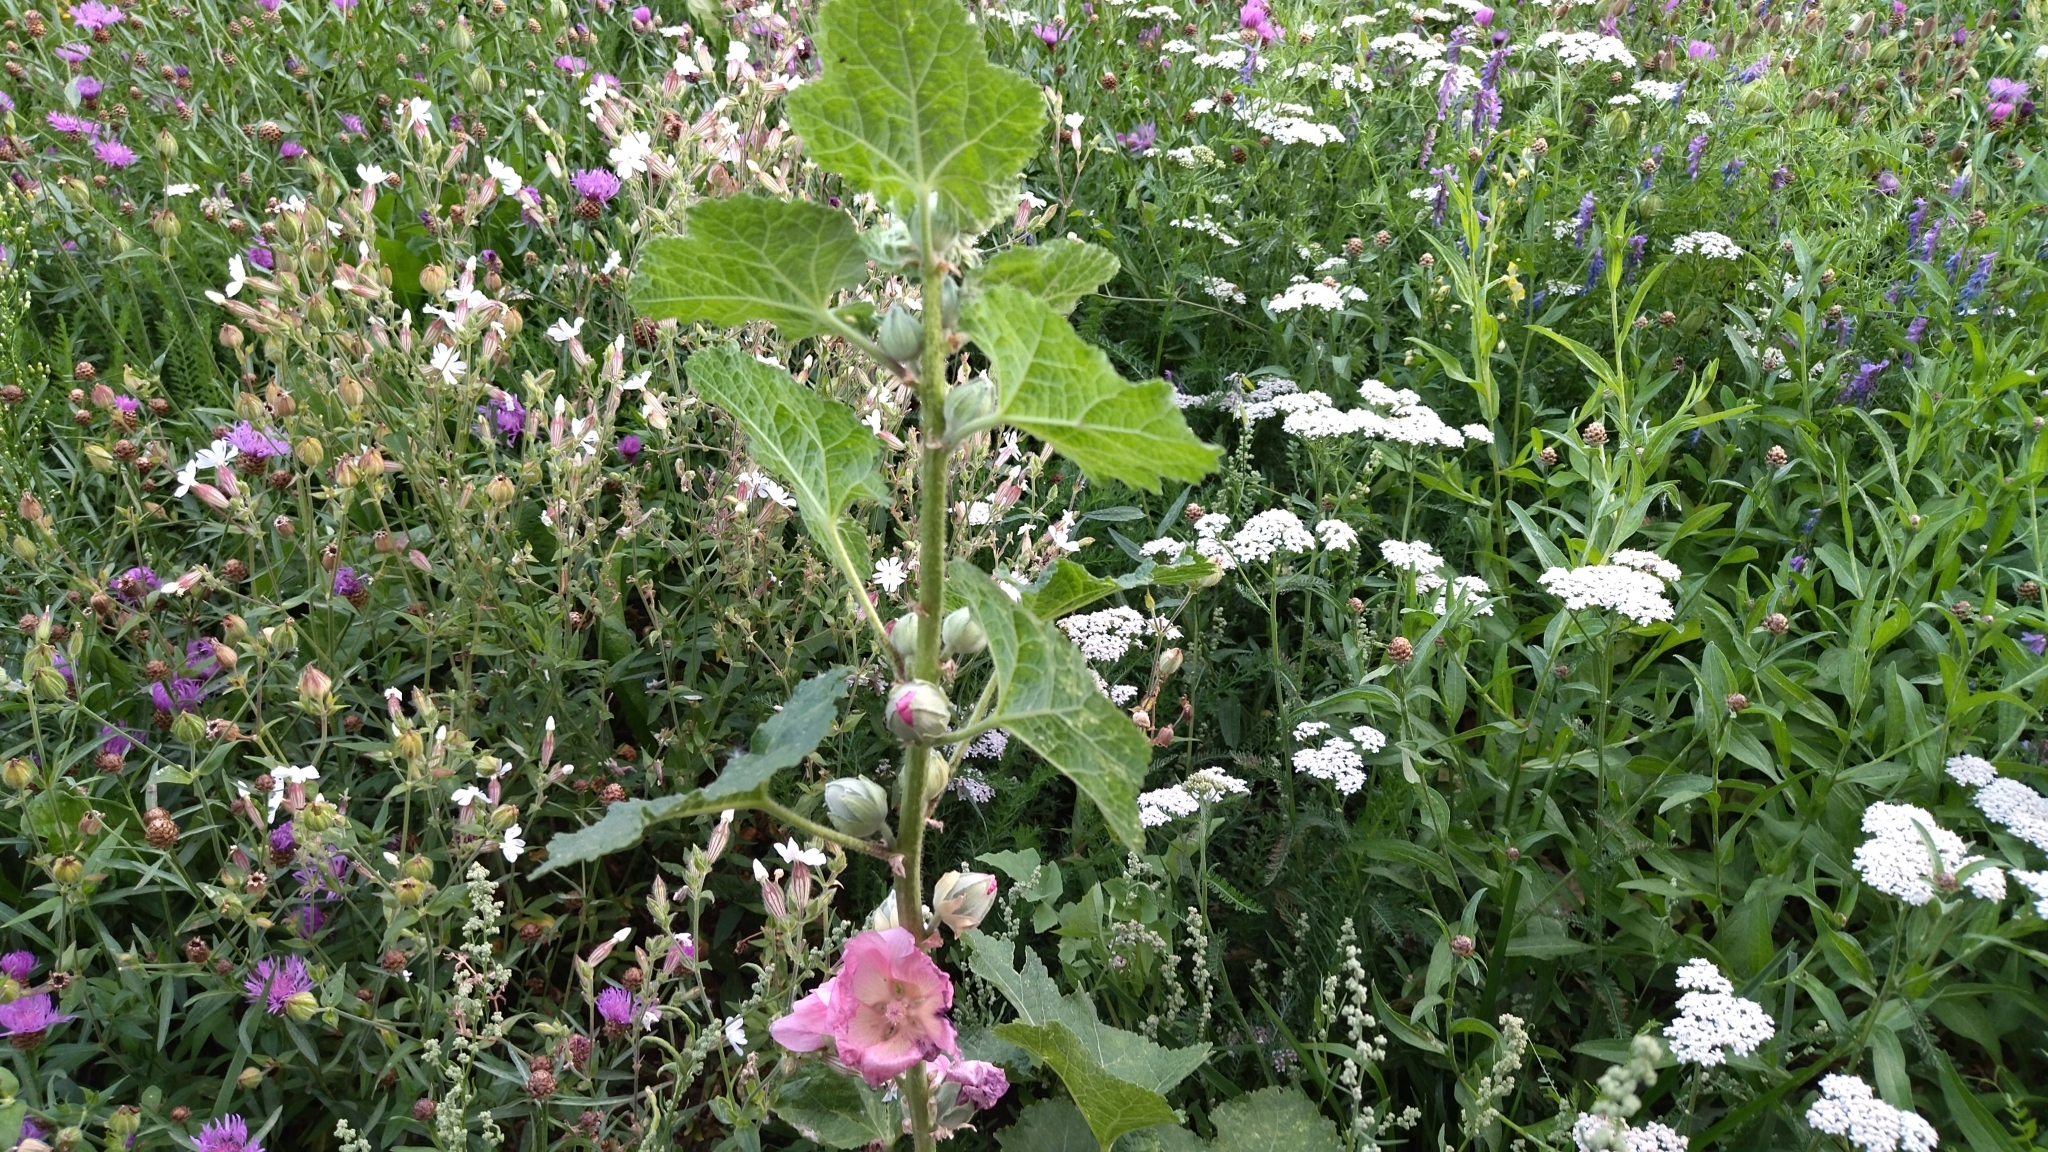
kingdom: Plantae
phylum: Tracheophyta
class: Magnoliopsida
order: Malvales
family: Malvaceae
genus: Alcea
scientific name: Alcea rosea
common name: Hollyhock
